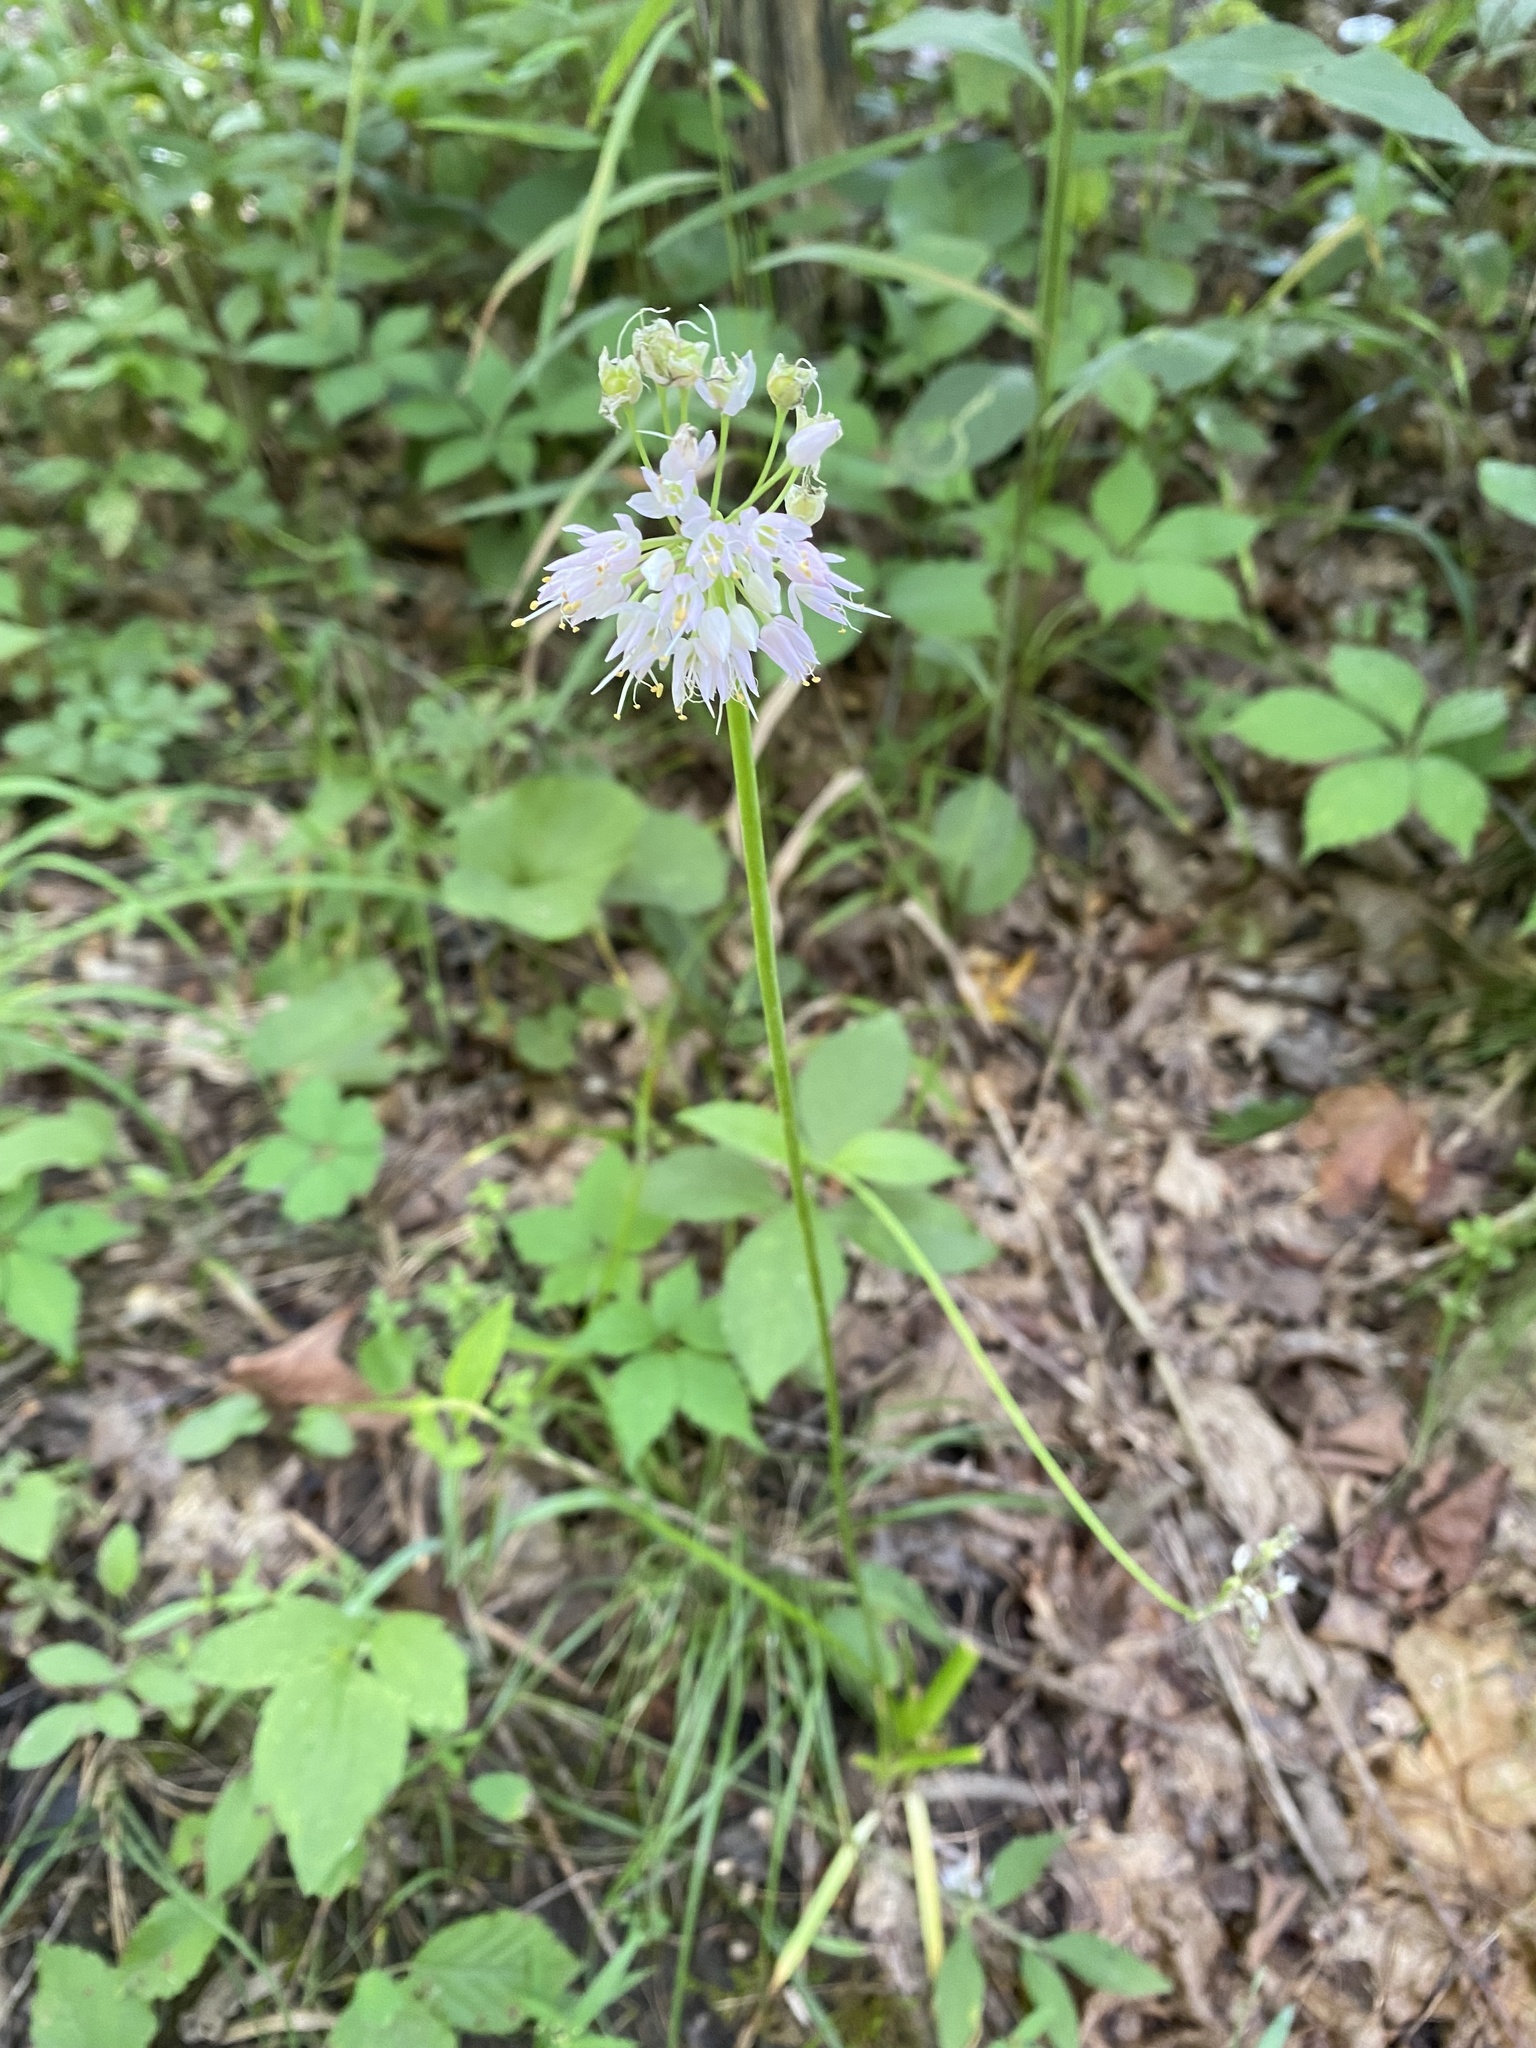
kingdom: Plantae
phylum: Tracheophyta
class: Liliopsida
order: Asparagales
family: Amaryllidaceae
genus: Allium
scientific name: Allium cernuum
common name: Nodding onion
